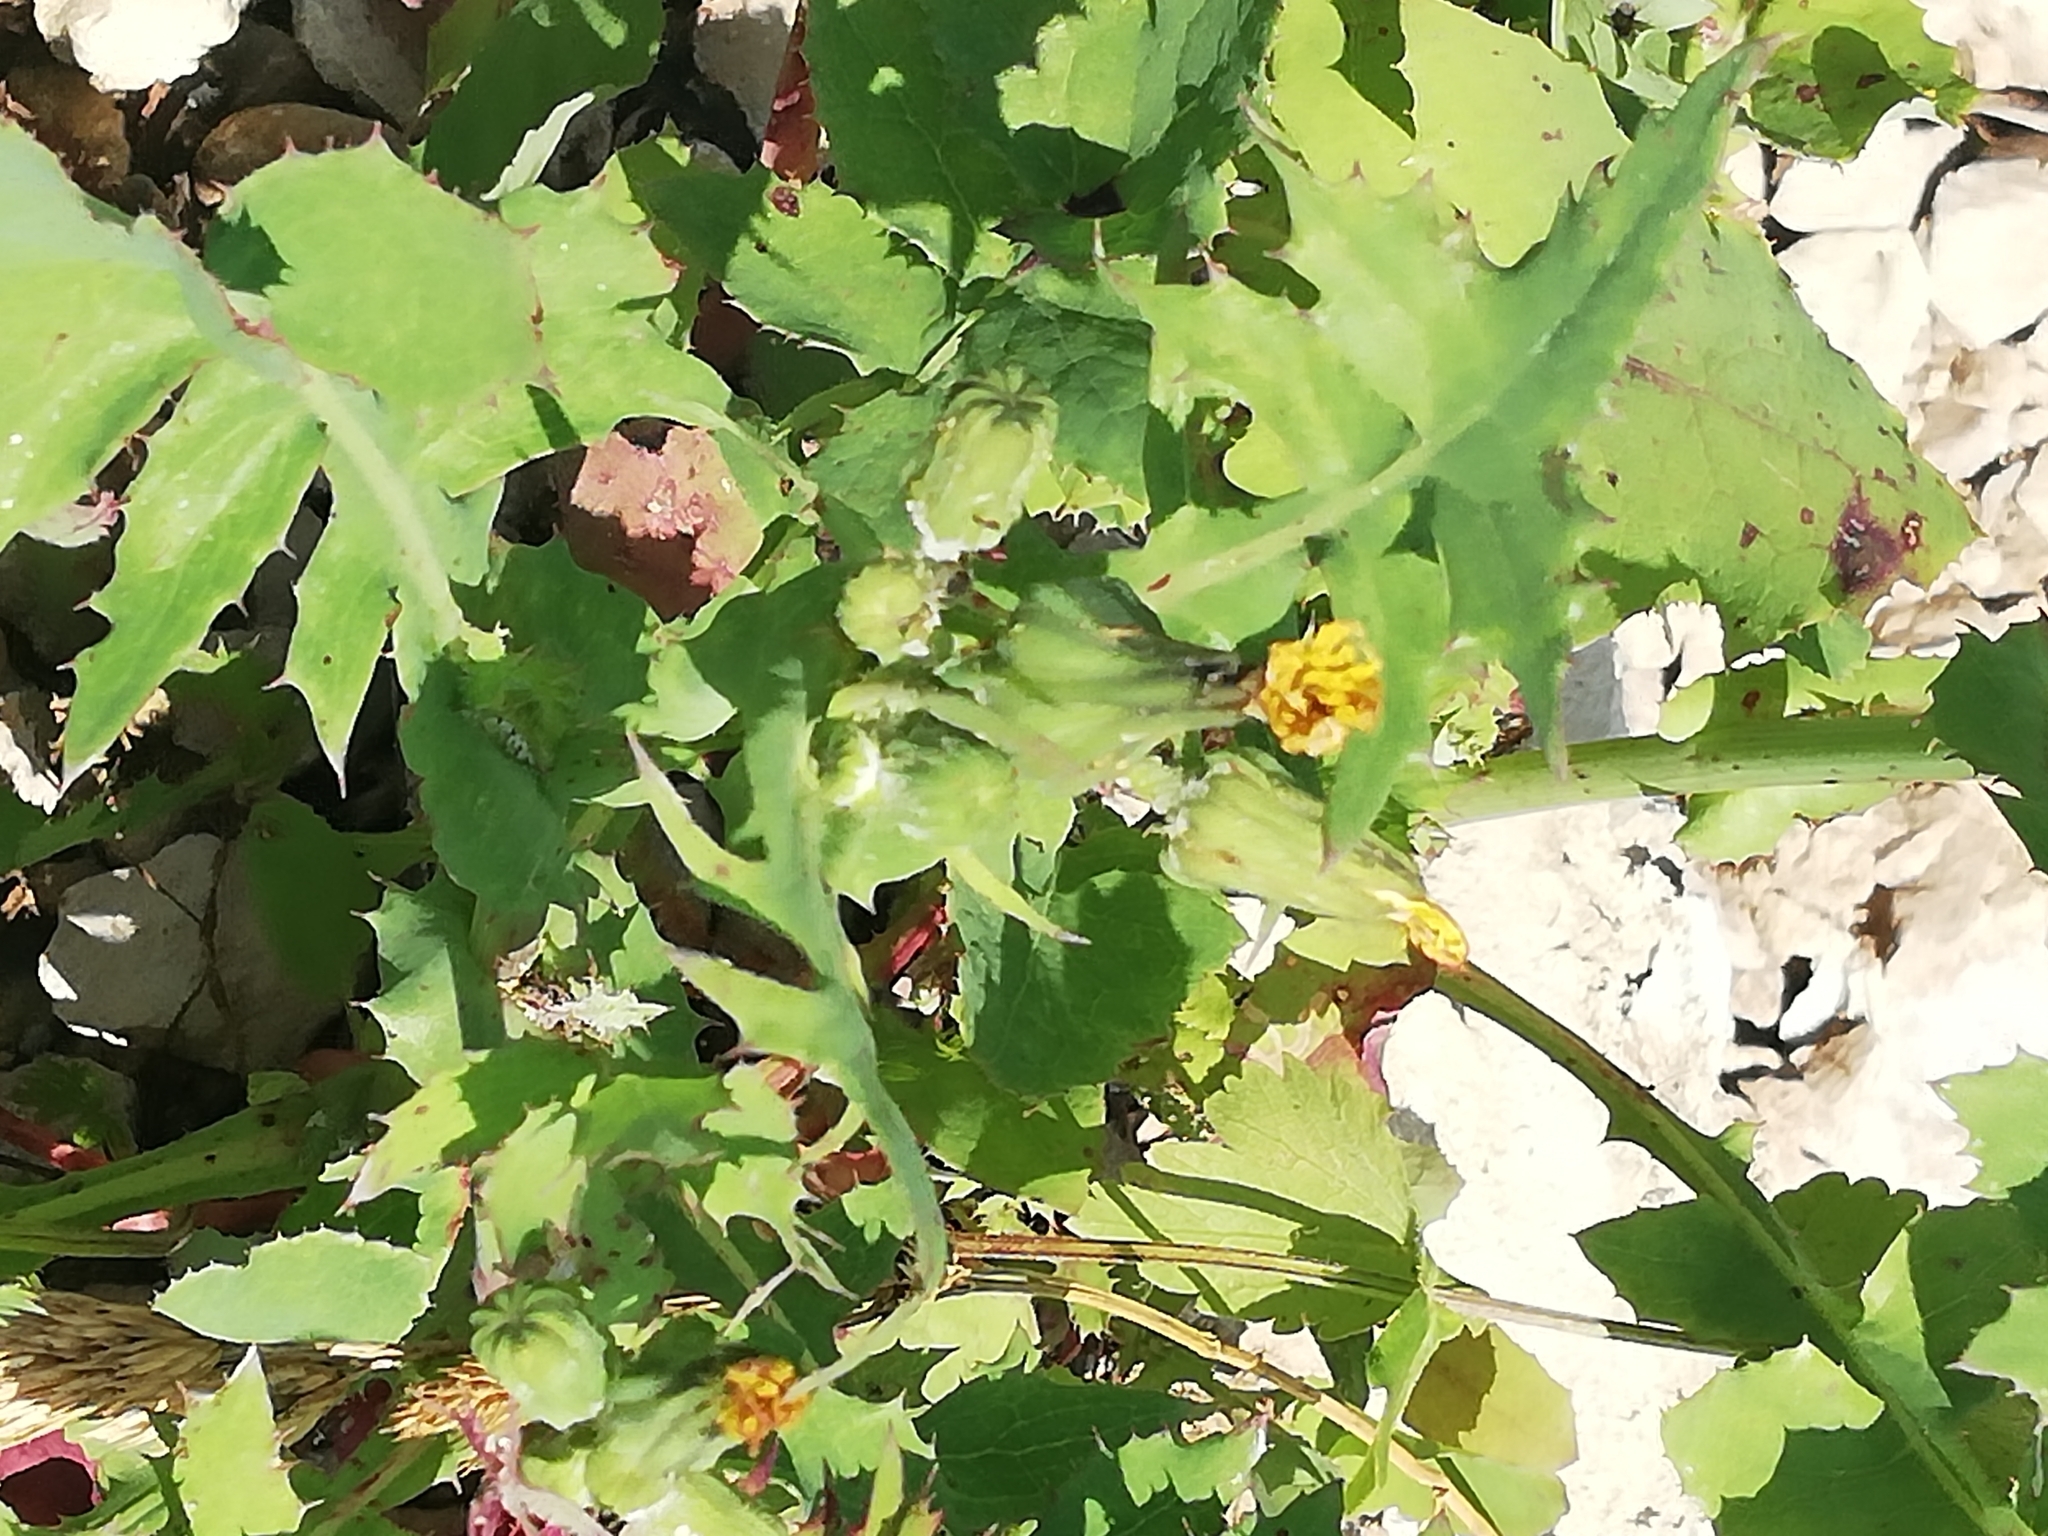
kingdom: Plantae
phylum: Tracheophyta
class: Magnoliopsida
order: Asterales
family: Asteraceae
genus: Sonchus
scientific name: Sonchus oleraceus
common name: Common sowthistle
